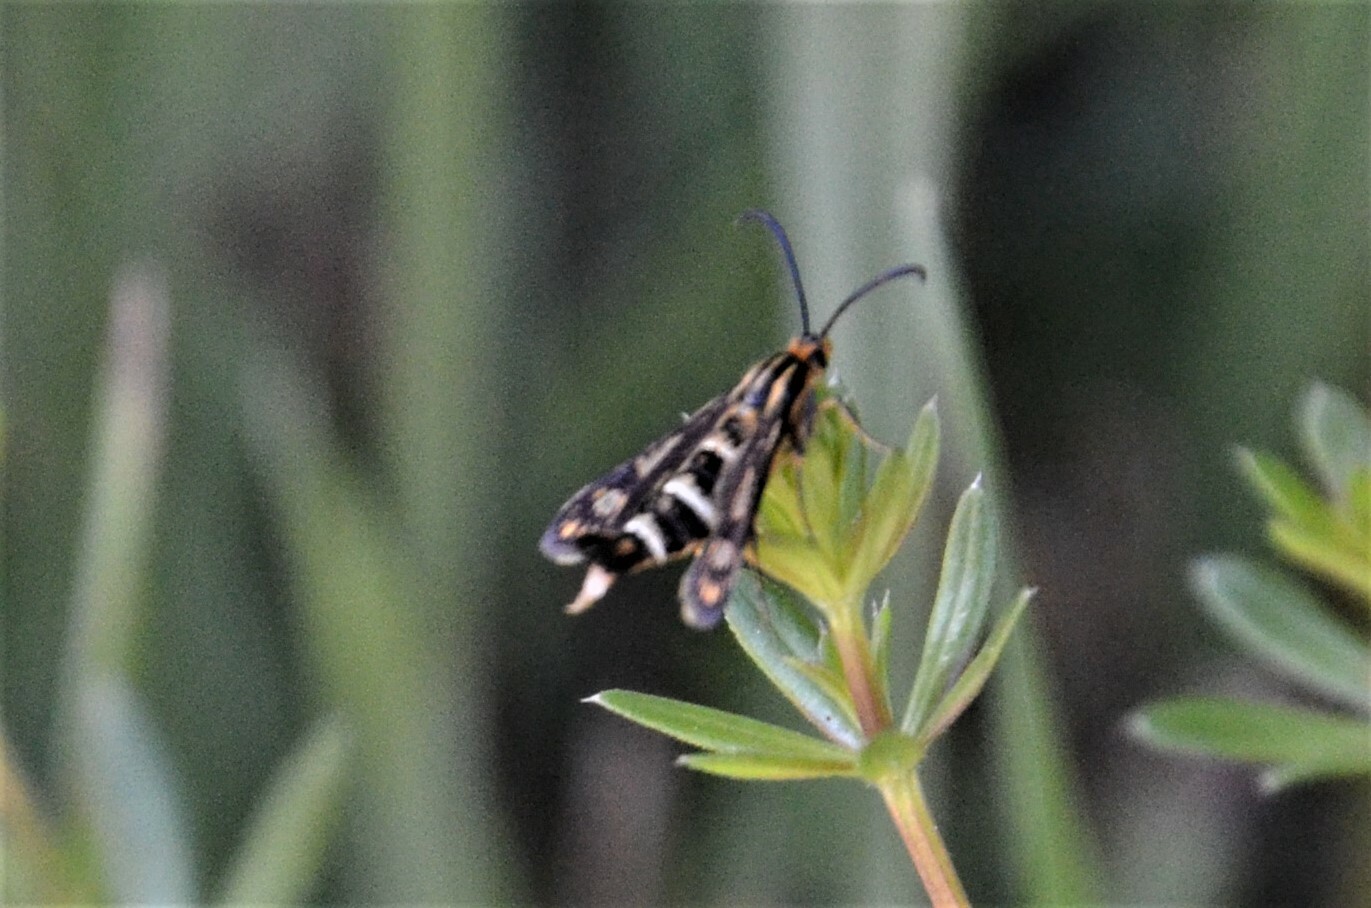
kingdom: Animalia
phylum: Arthropoda
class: Insecta
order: Lepidoptera
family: Sesiidae
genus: Chamaesphecia
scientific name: Chamaesphecia empiformis
